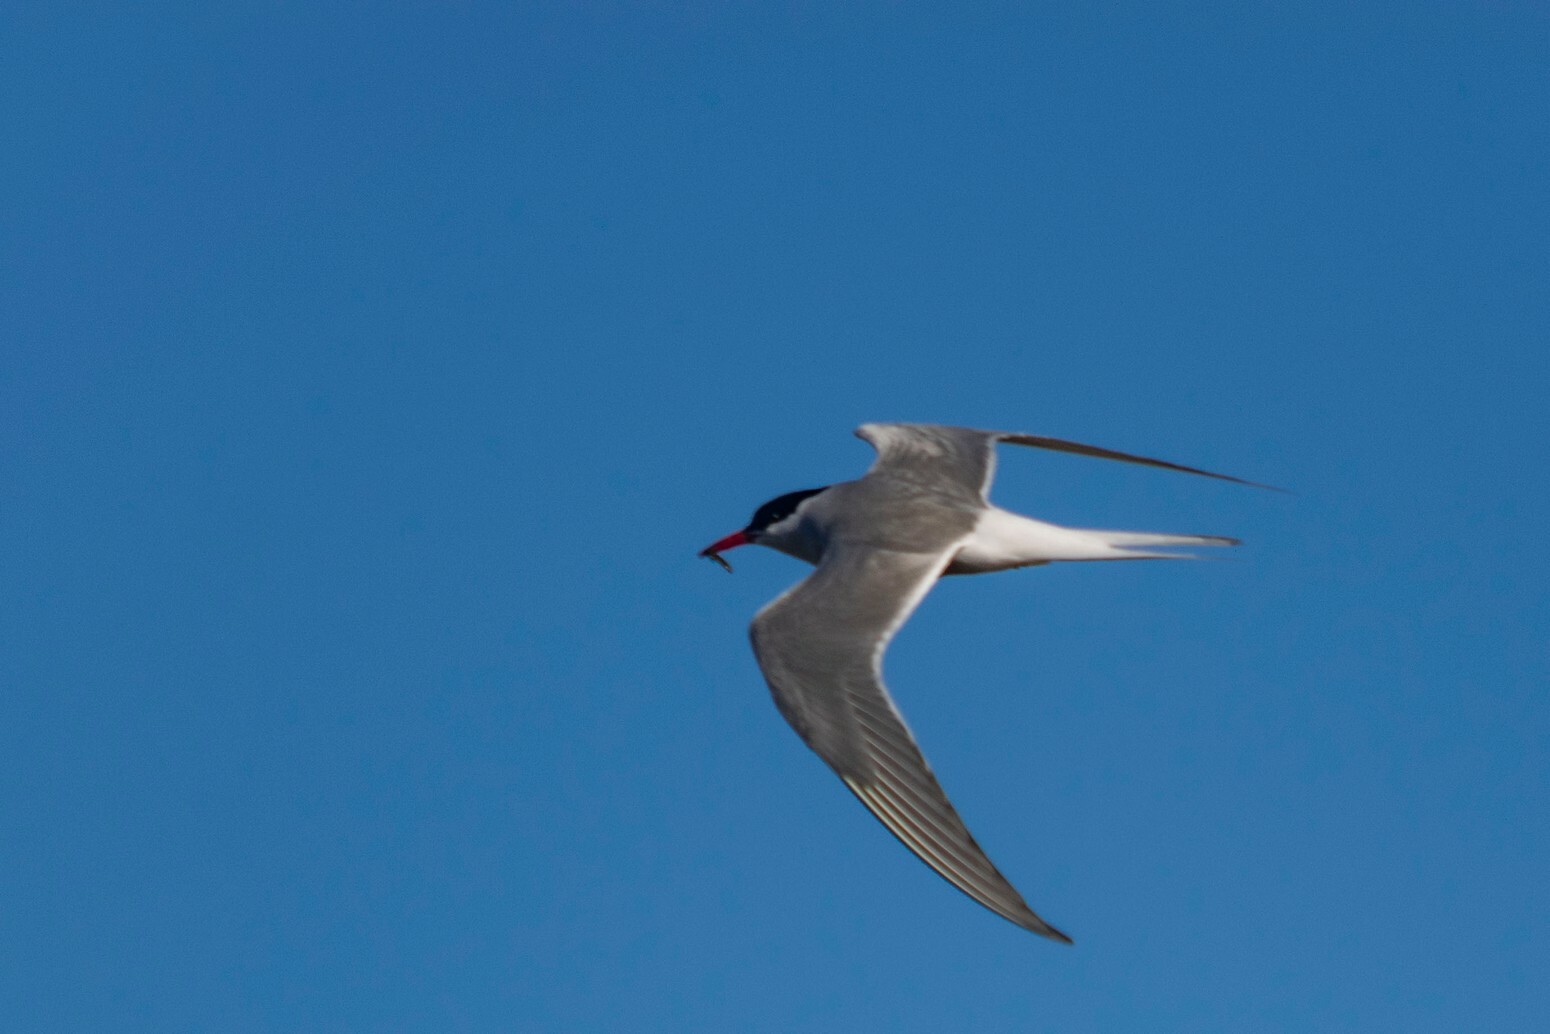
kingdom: Animalia
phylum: Chordata
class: Aves
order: Charadriiformes
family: Laridae
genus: Sterna
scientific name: Sterna paradisaea
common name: Arctic tern
